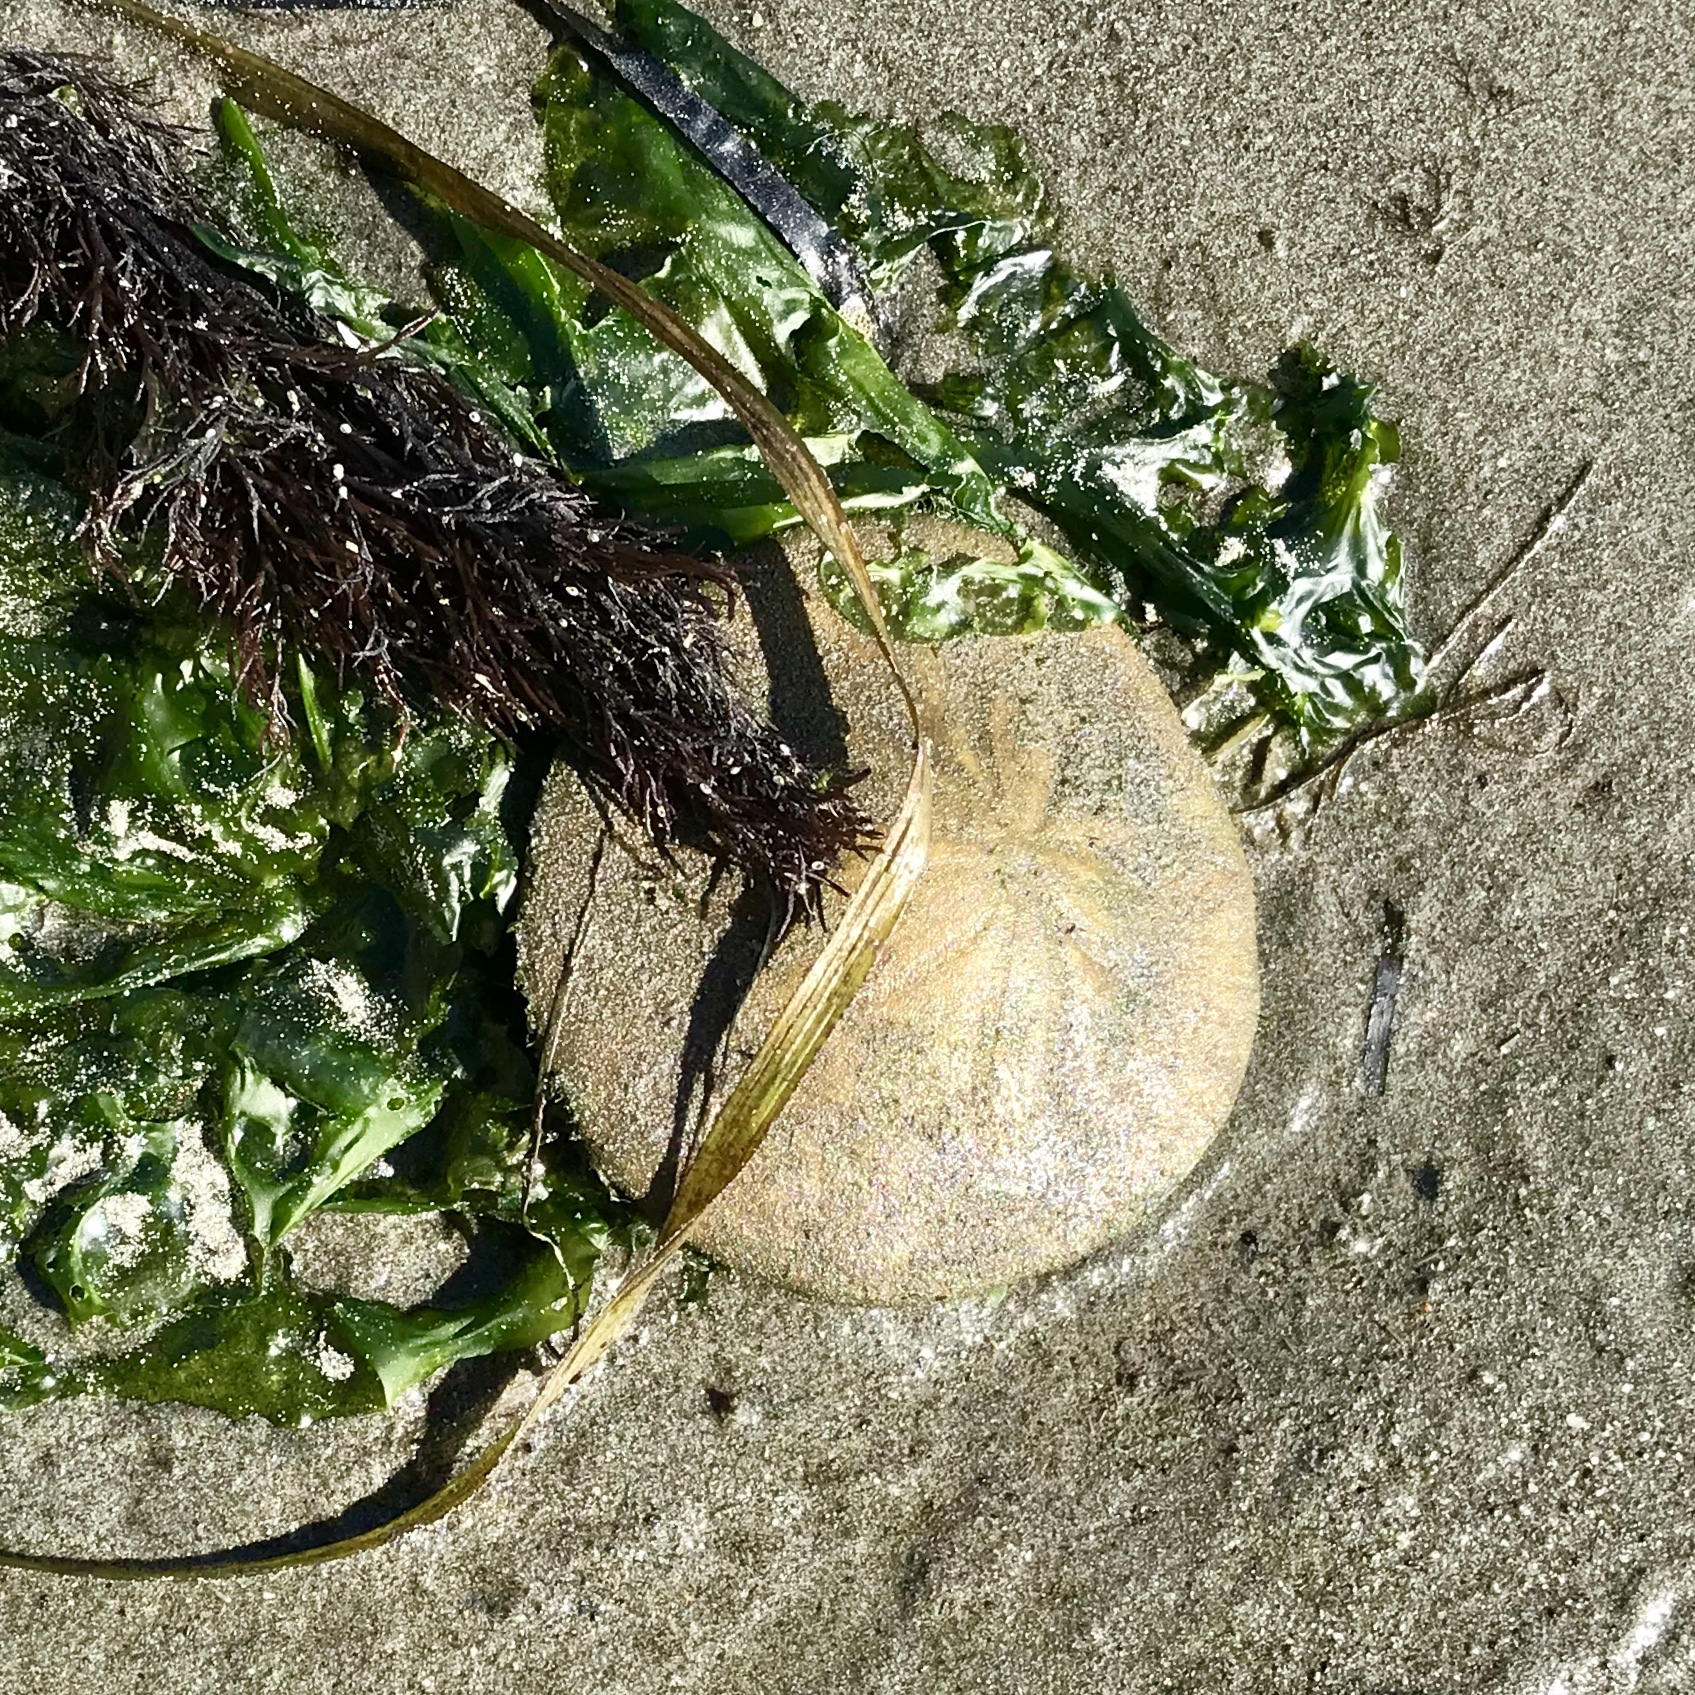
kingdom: Animalia
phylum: Echinodermata
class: Echinoidea
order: Echinolampadacea
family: Dendrasteridae
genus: Dendraster
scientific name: Dendraster excentricus
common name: Eccentric sand dollar sea urchin
